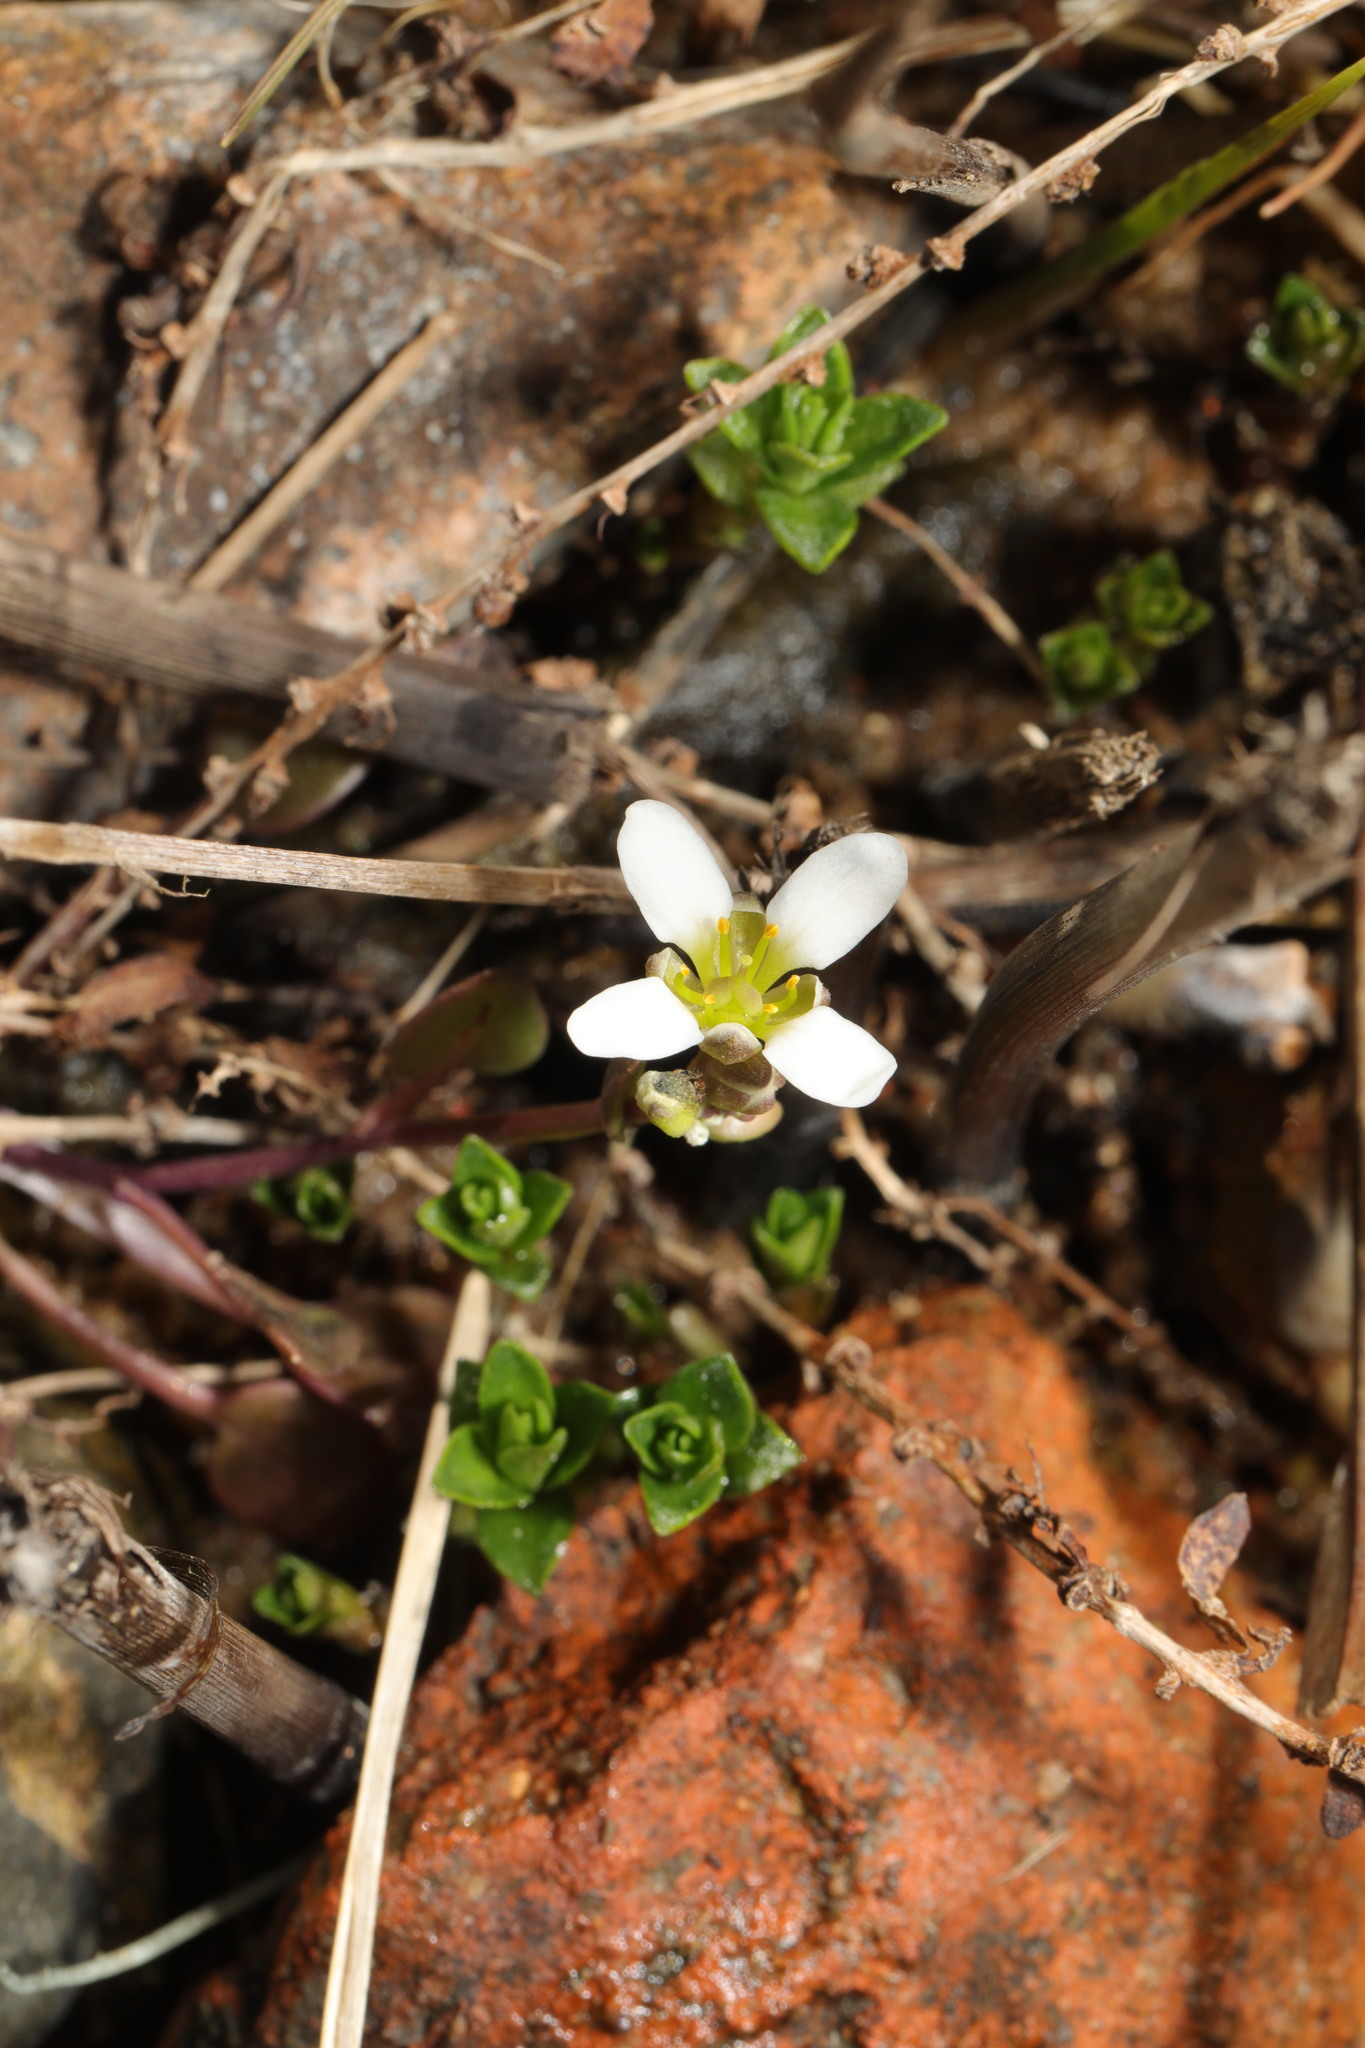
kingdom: Plantae
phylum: Tracheophyta
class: Magnoliopsida
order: Caryophyllales
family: Caryophyllaceae
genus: Honckenya
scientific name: Honckenya peploides
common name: Sea sandwort
